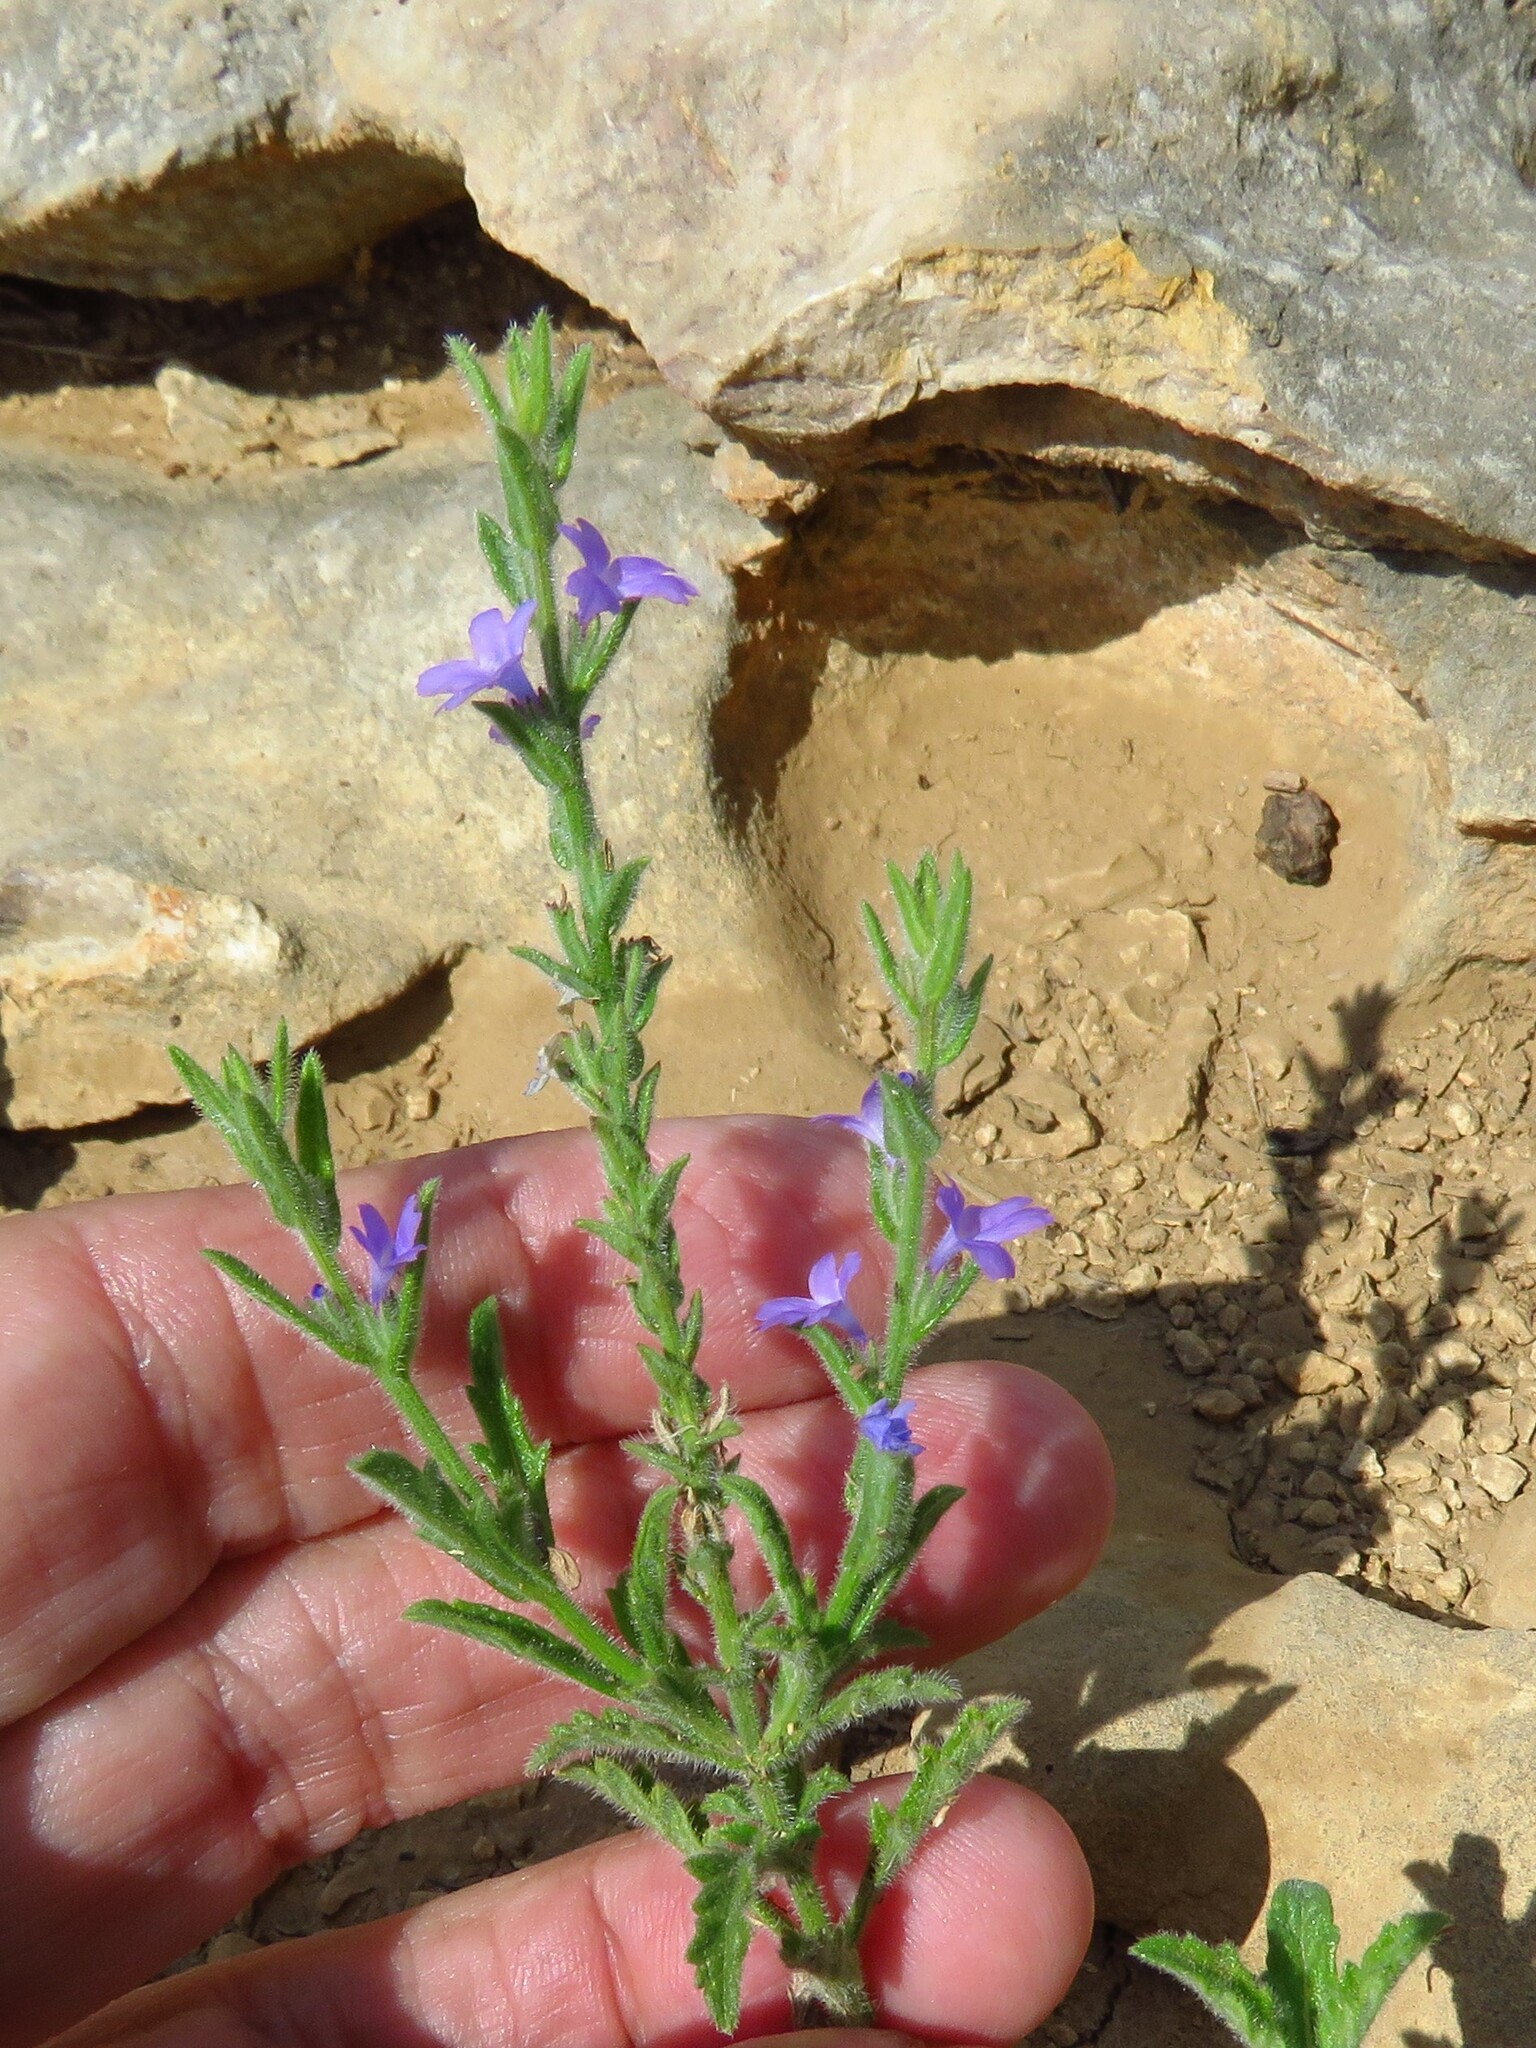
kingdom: Plantae
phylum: Tracheophyta
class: Magnoliopsida
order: Lamiales
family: Verbenaceae
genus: Verbena
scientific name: Verbena canescens
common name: Gray vervain
